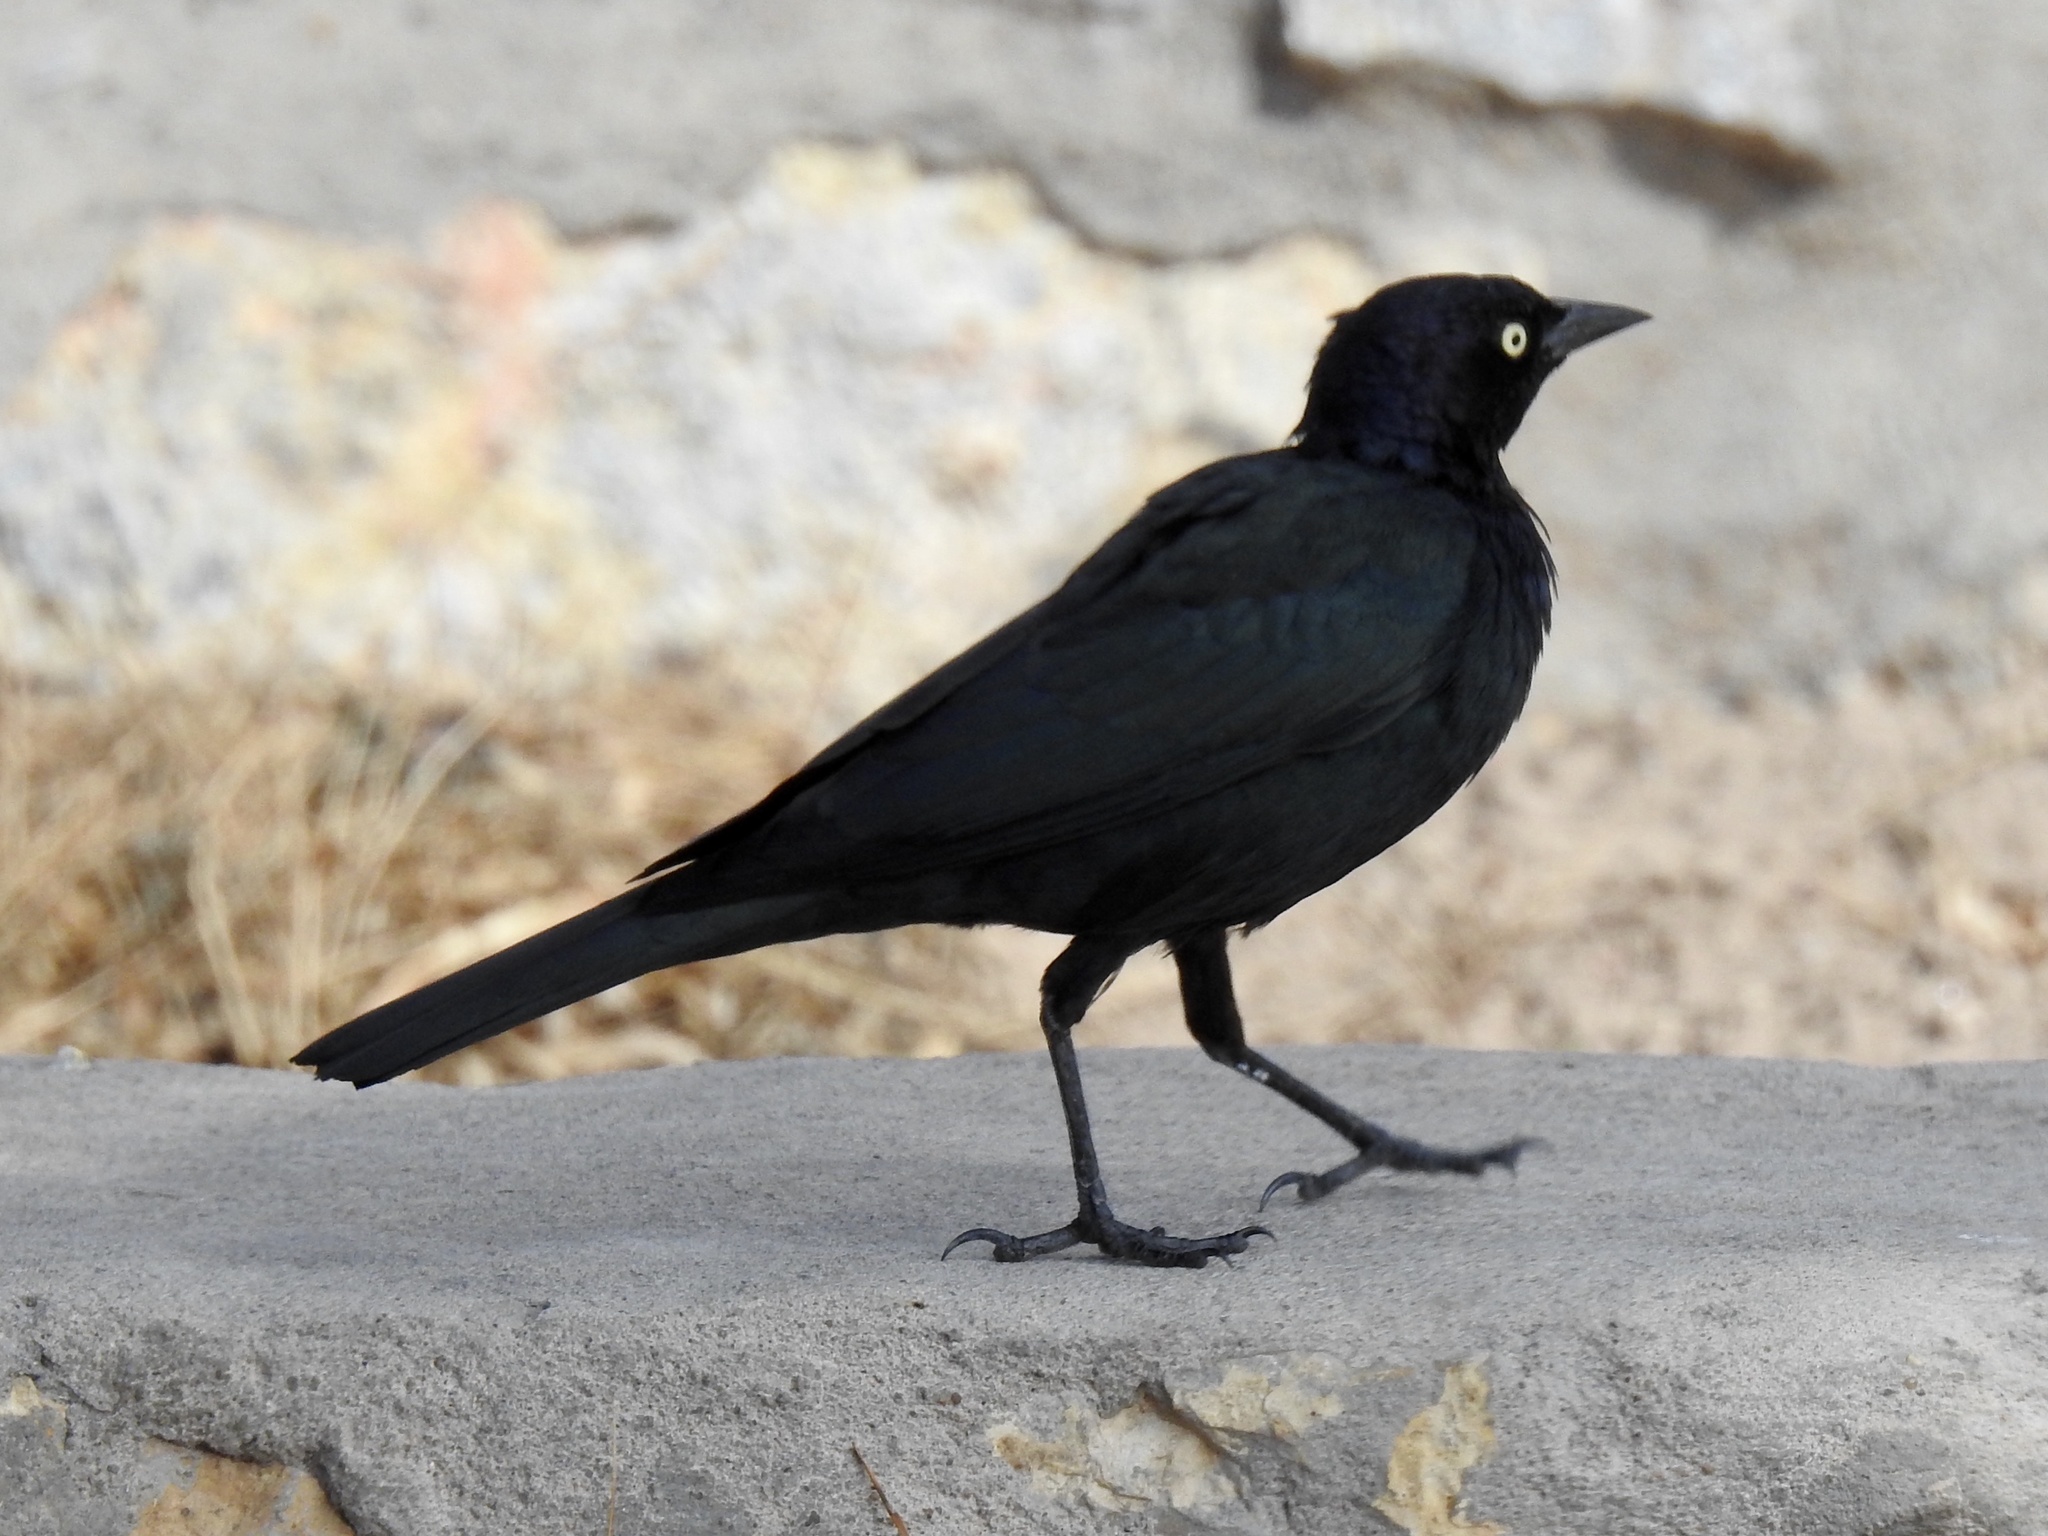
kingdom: Animalia
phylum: Chordata
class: Aves
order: Passeriformes
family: Icteridae
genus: Euphagus
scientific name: Euphagus cyanocephalus
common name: Brewer's blackbird
